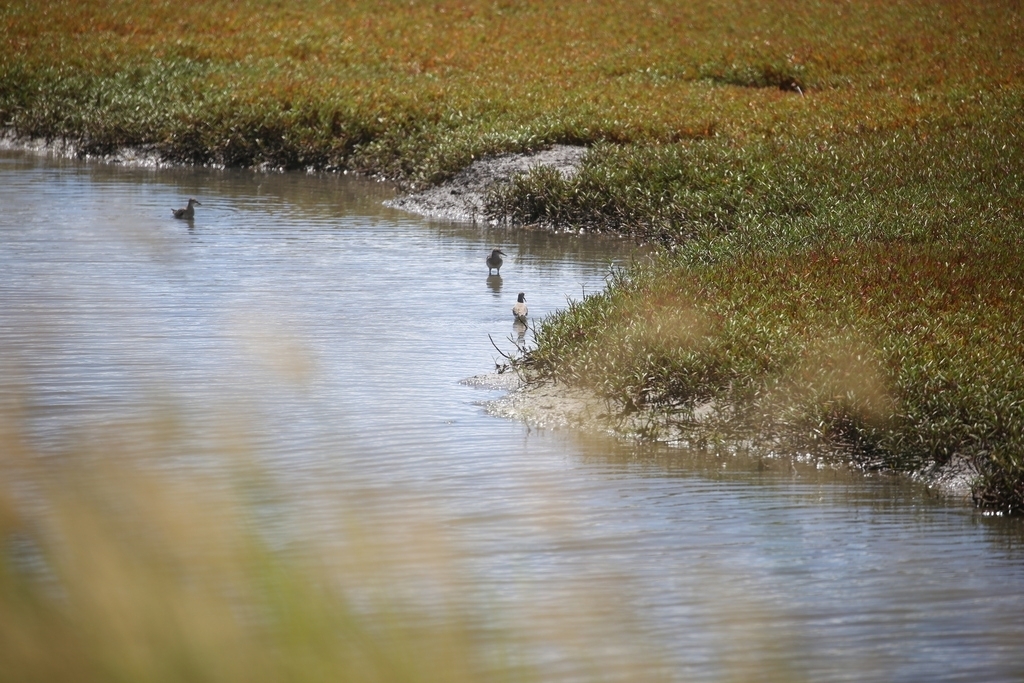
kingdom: Animalia
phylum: Chordata
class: Aves
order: Charadriiformes
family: Scolopacidae
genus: Calidris
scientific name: Calidris acuminata
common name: Sharp-tailed sandpiper
